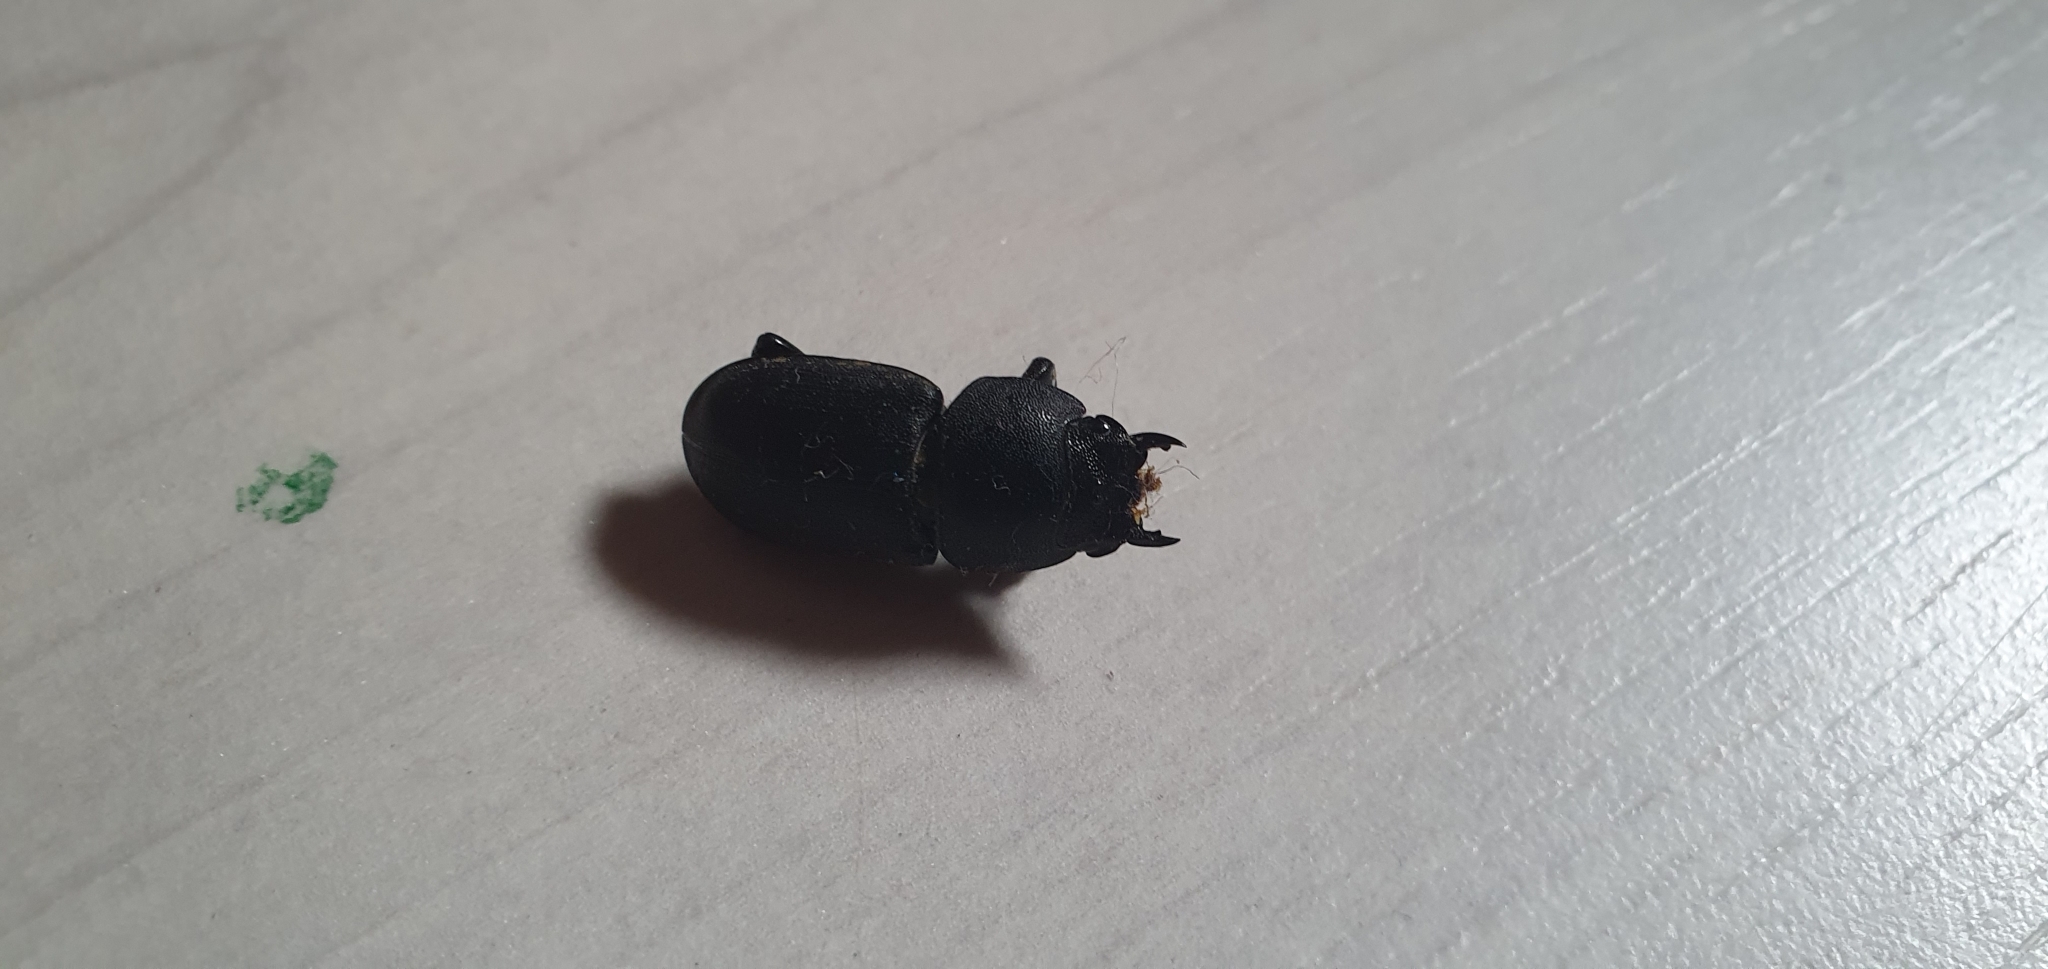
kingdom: Animalia
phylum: Arthropoda
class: Insecta
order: Coleoptera
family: Lucanidae
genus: Dorcus
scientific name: Dorcus parallelipipedus
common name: Lesser stag beetle
